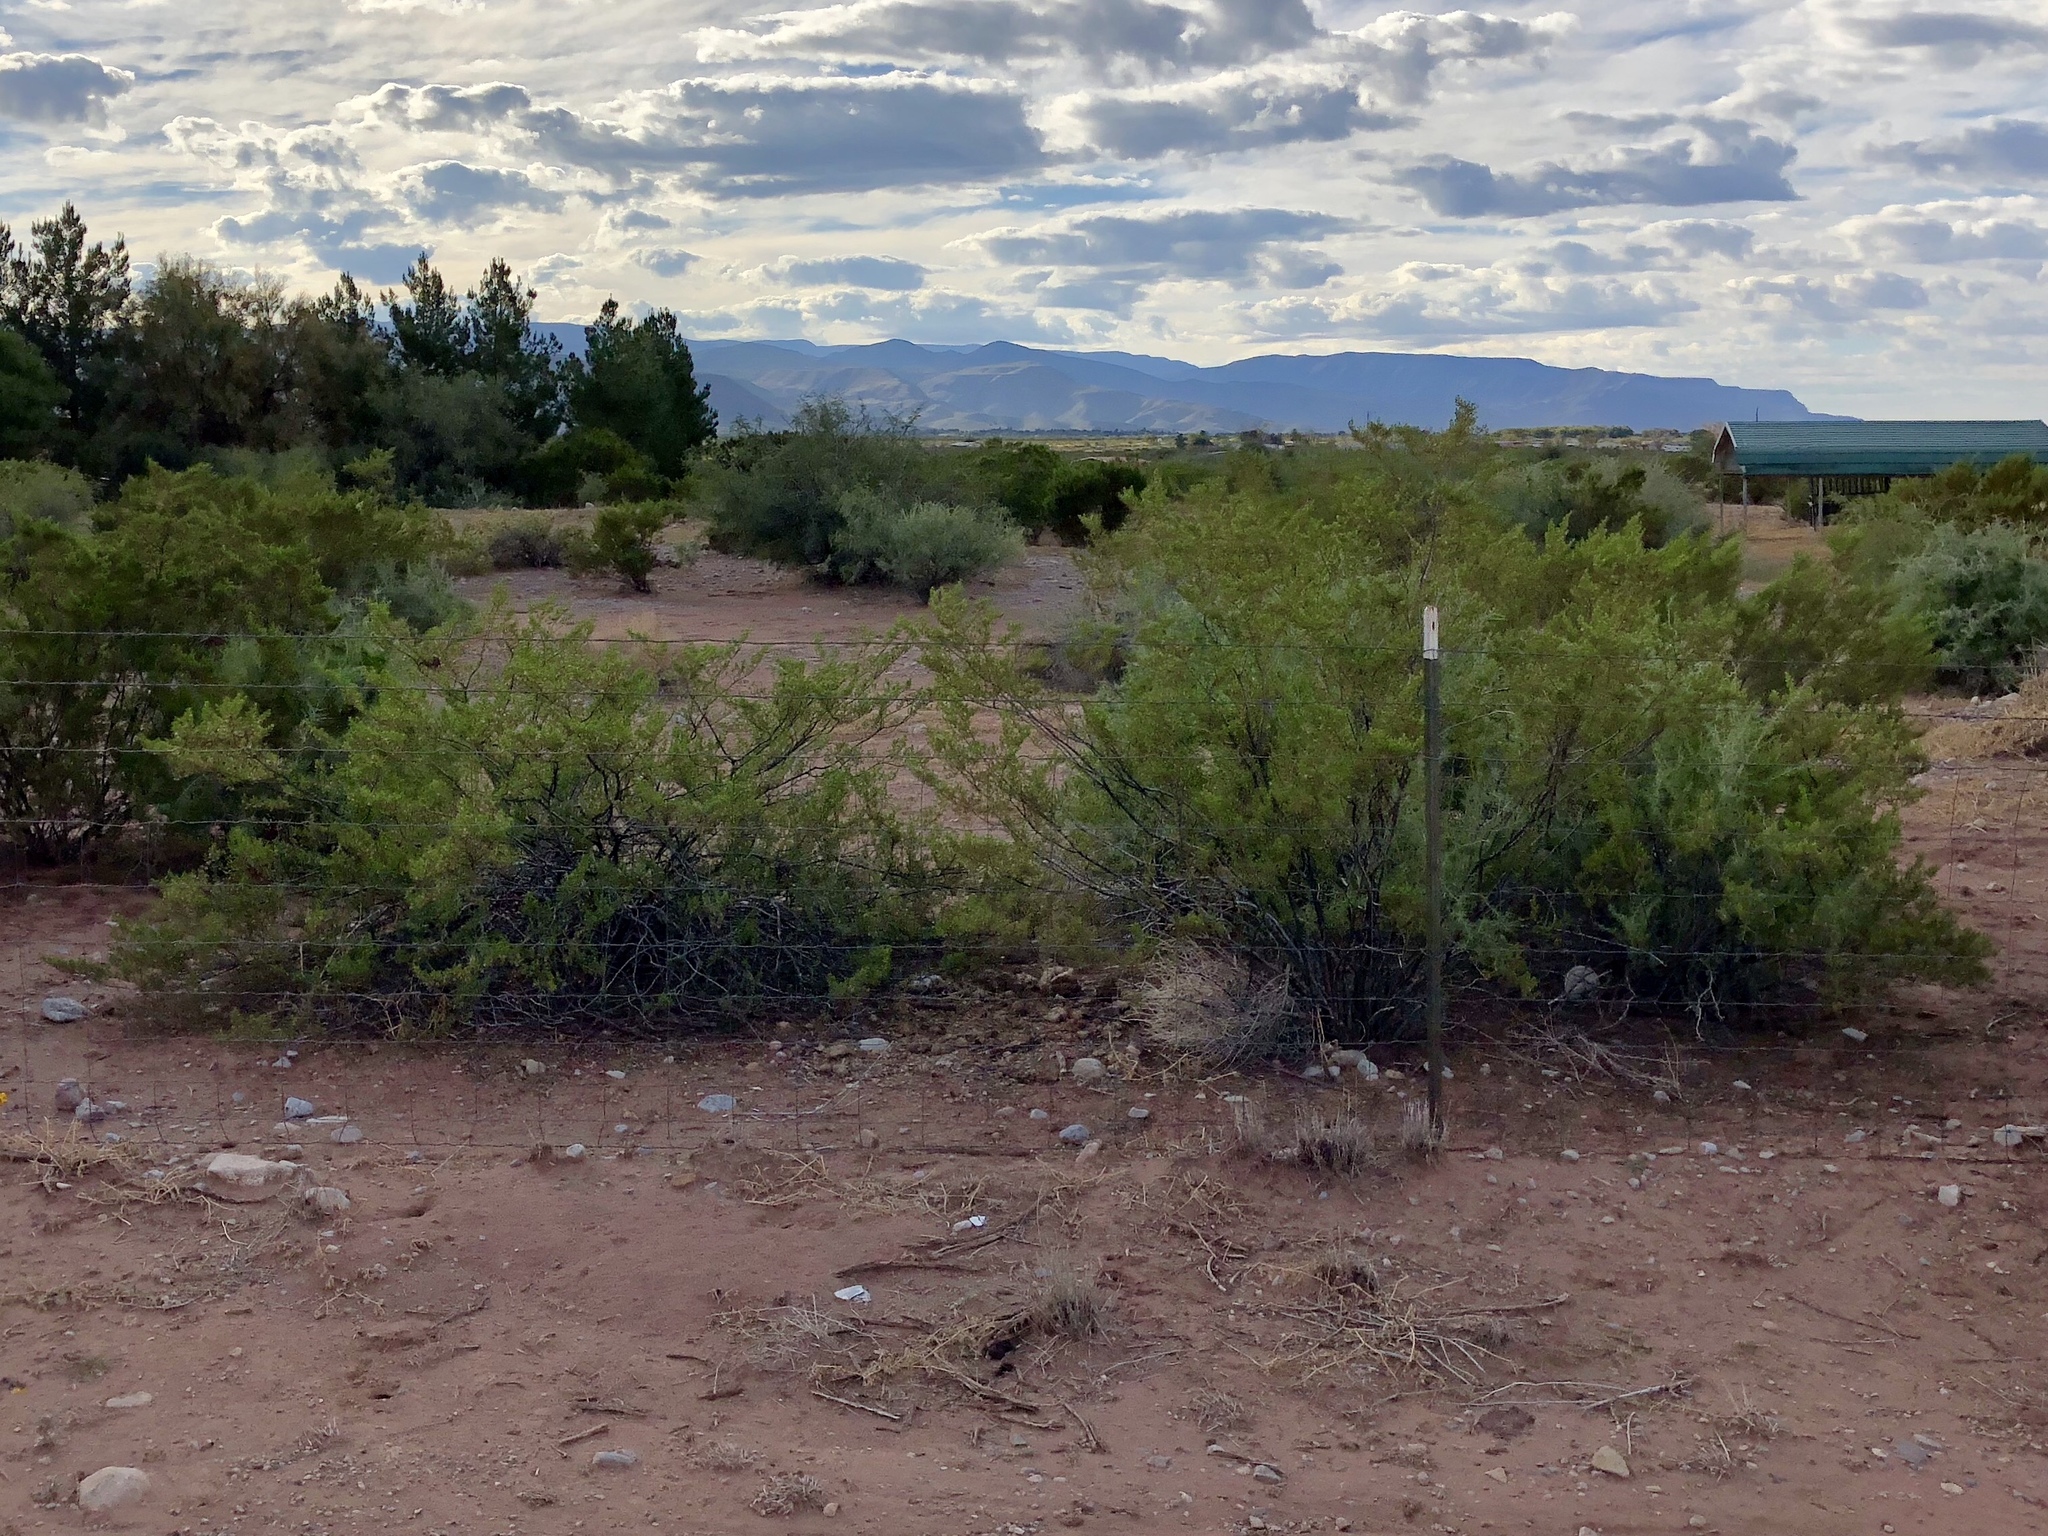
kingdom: Plantae
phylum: Tracheophyta
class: Magnoliopsida
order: Zygophyllales
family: Zygophyllaceae
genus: Larrea
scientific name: Larrea tridentata
